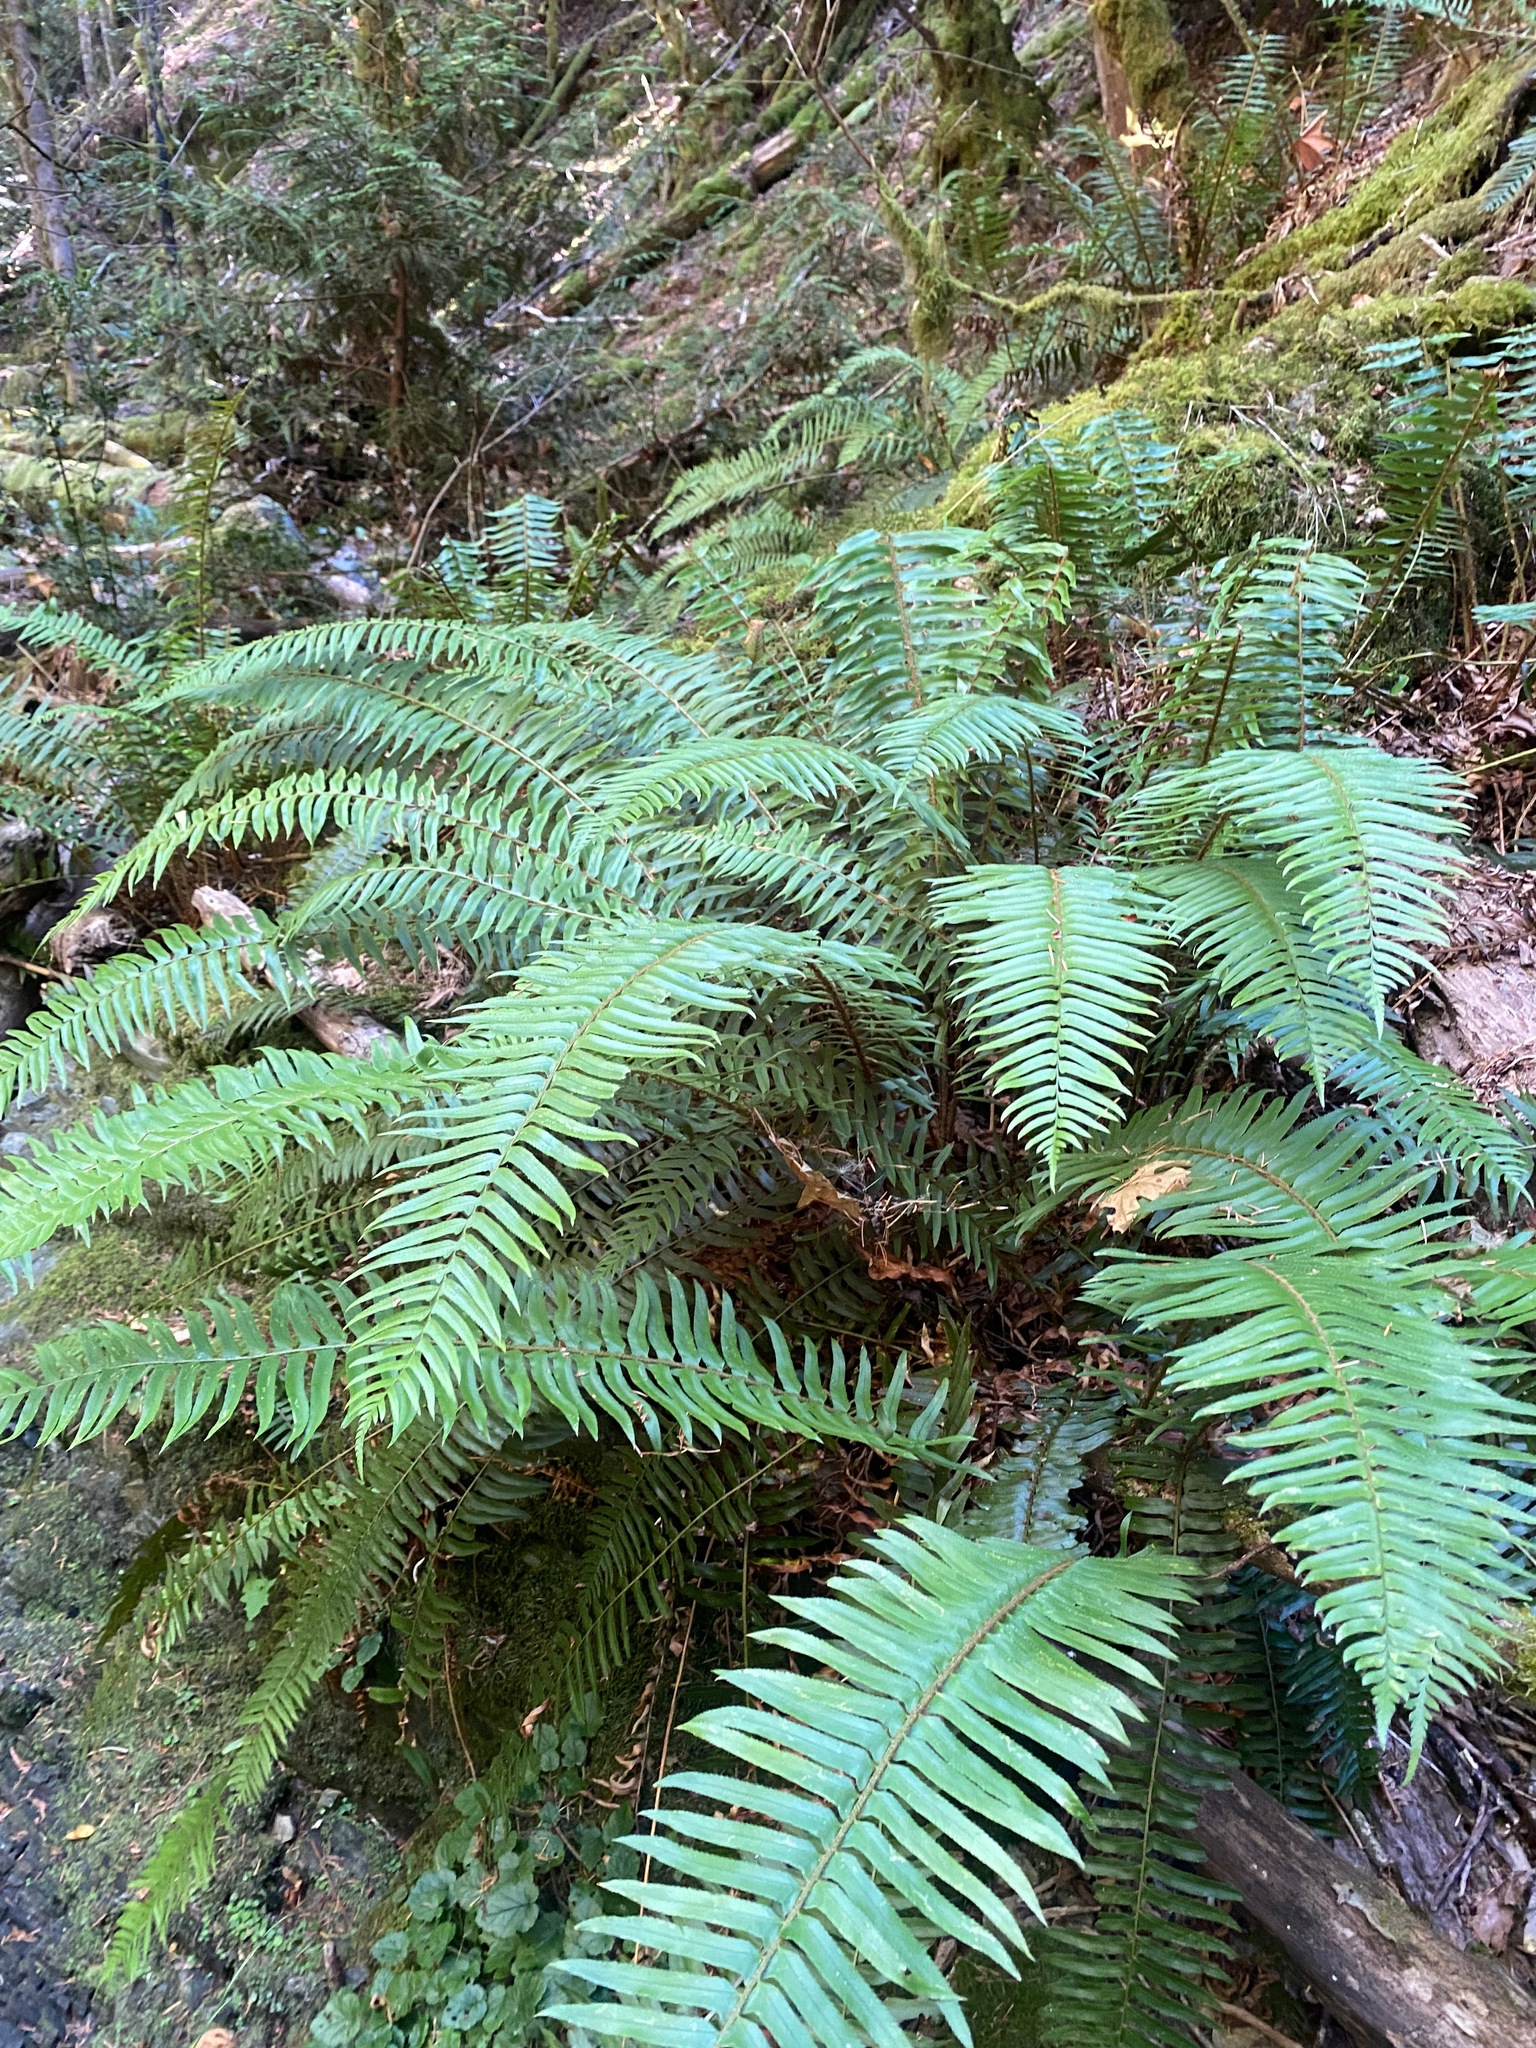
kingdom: Plantae
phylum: Tracheophyta
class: Polypodiopsida
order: Polypodiales
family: Dryopteridaceae
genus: Polystichum
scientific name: Polystichum munitum
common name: Western sword-fern
